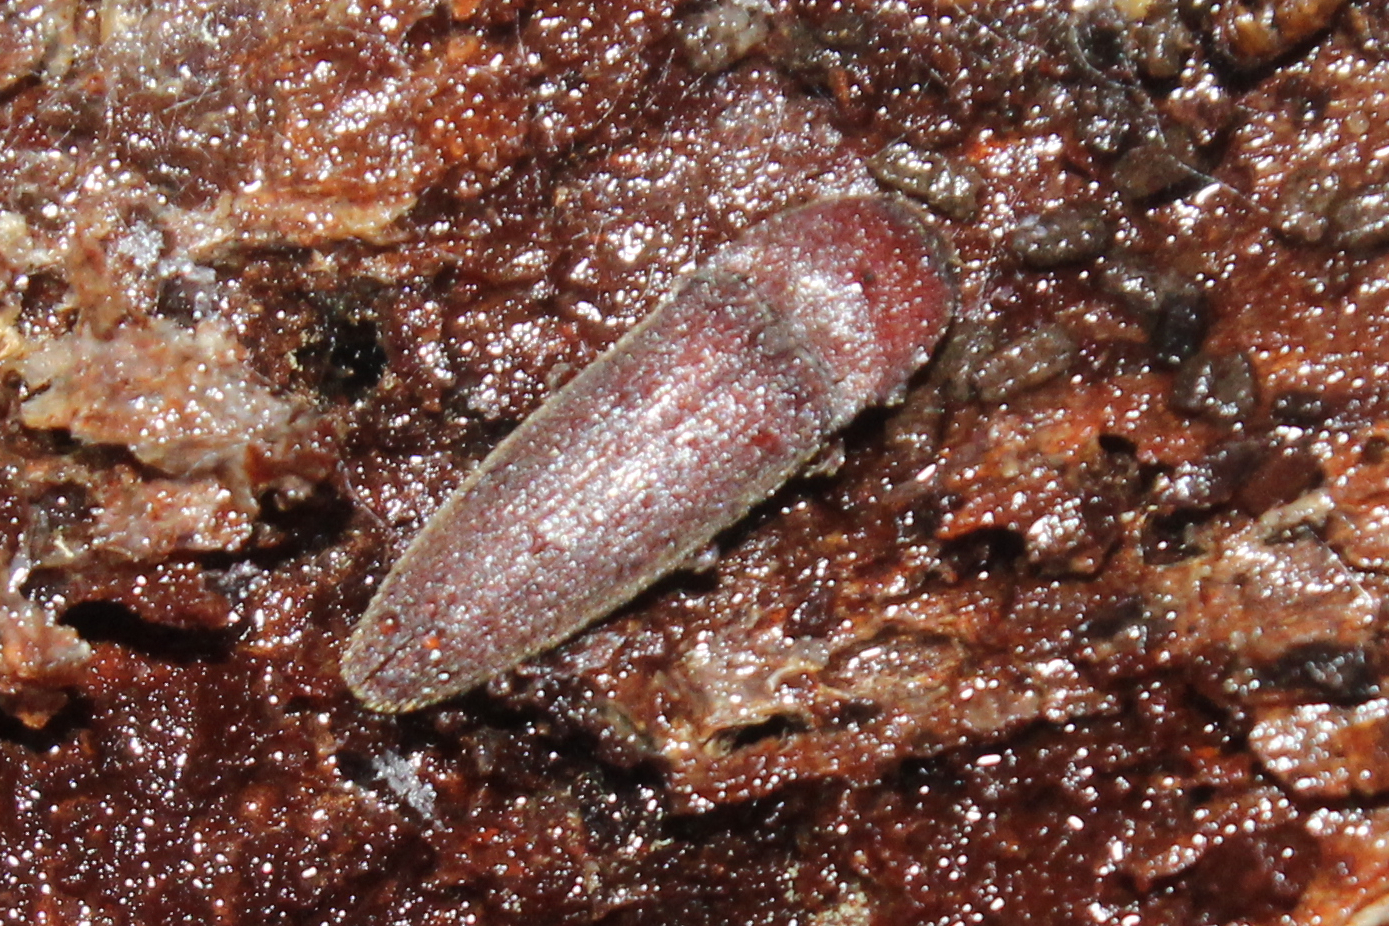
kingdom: Animalia
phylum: Arthropoda
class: Insecta
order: Coleoptera
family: Elateridae
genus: Melanotus
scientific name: Melanotus
